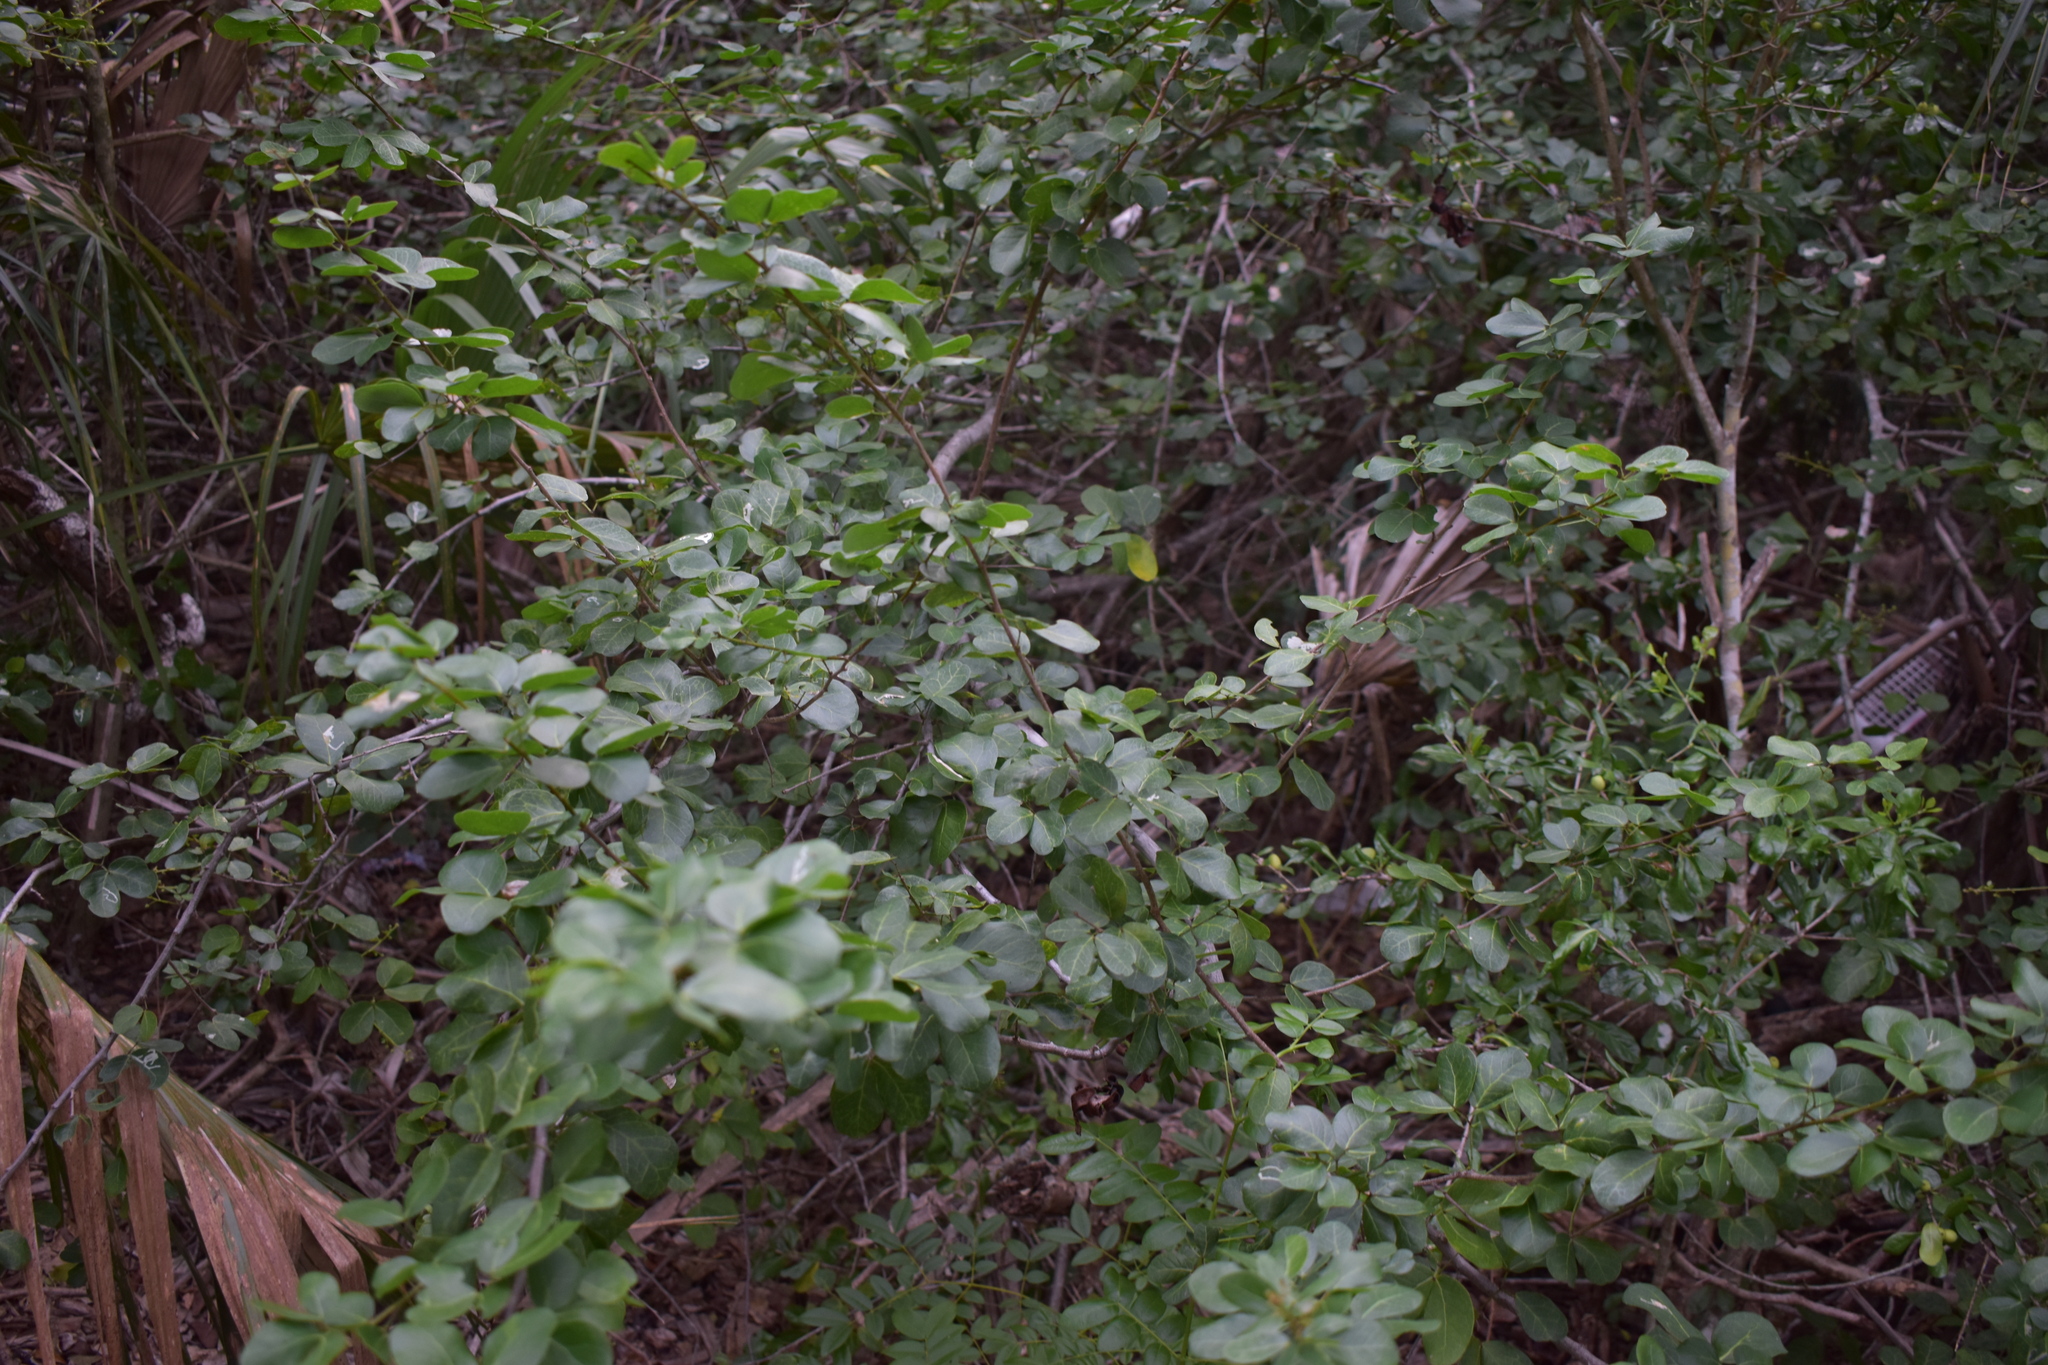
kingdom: Plantae
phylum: Tracheophyta
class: Magnoliopsida
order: Fabales
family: Fabaceae
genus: Pithecellobium
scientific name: Pithecellobium unguis-cati
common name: Cat's-claw
